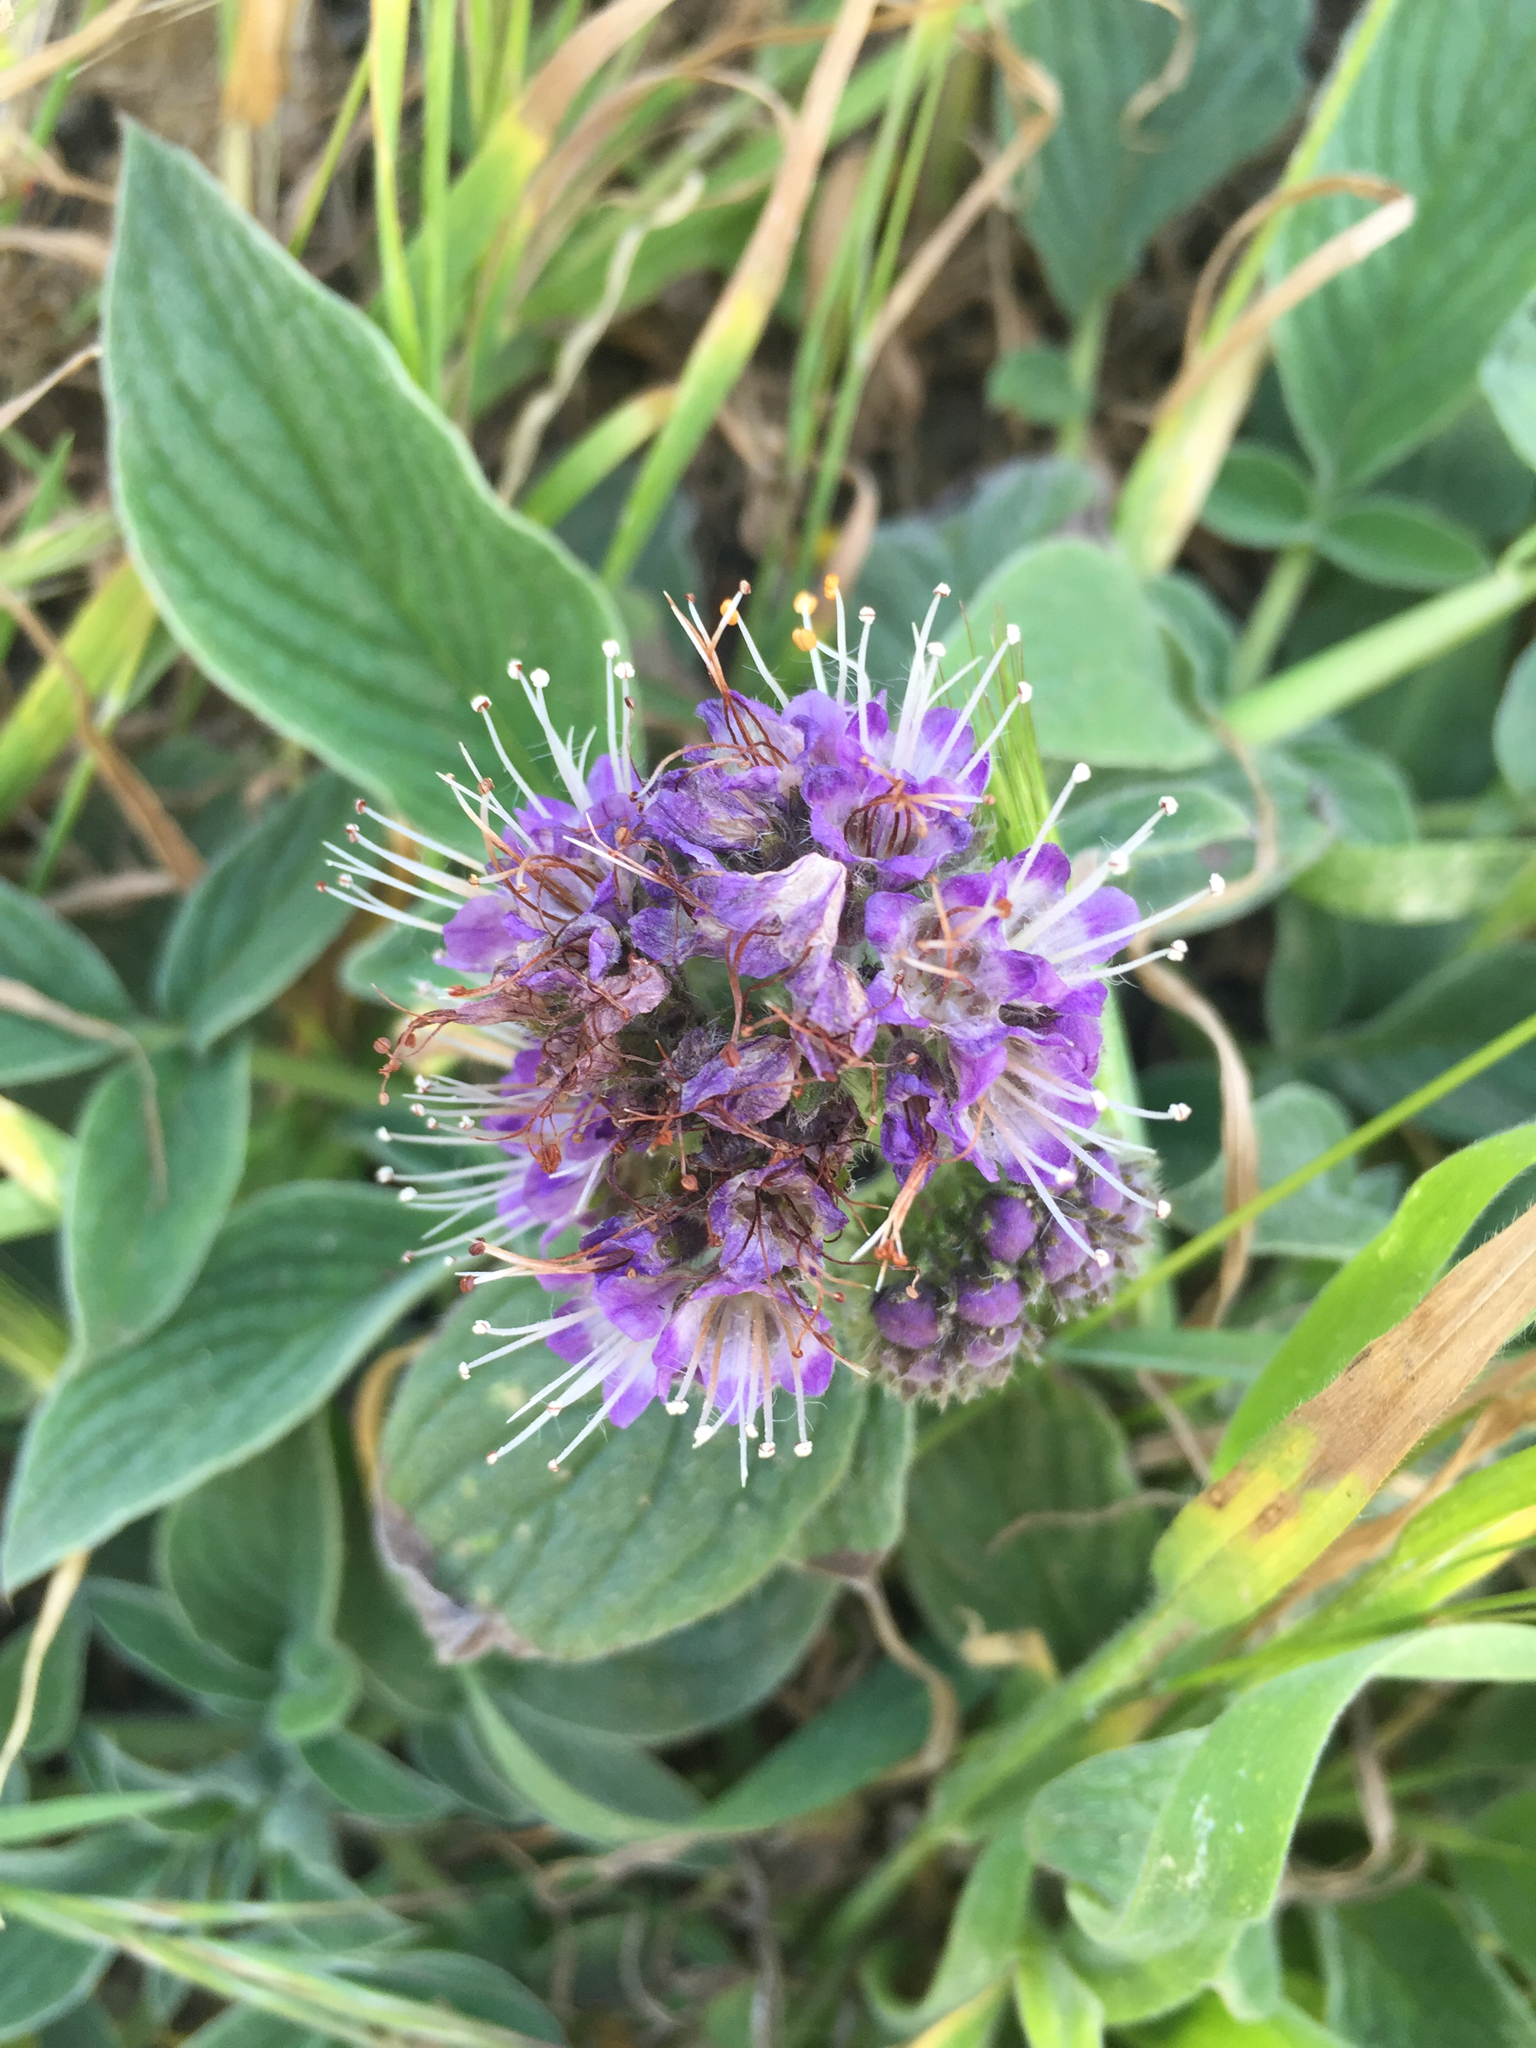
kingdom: Plantae
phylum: Tracheophyta
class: Magnoliopsida
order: Boraginales
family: Hydrophyllaceae
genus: Phacelia
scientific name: Phacelia californica
